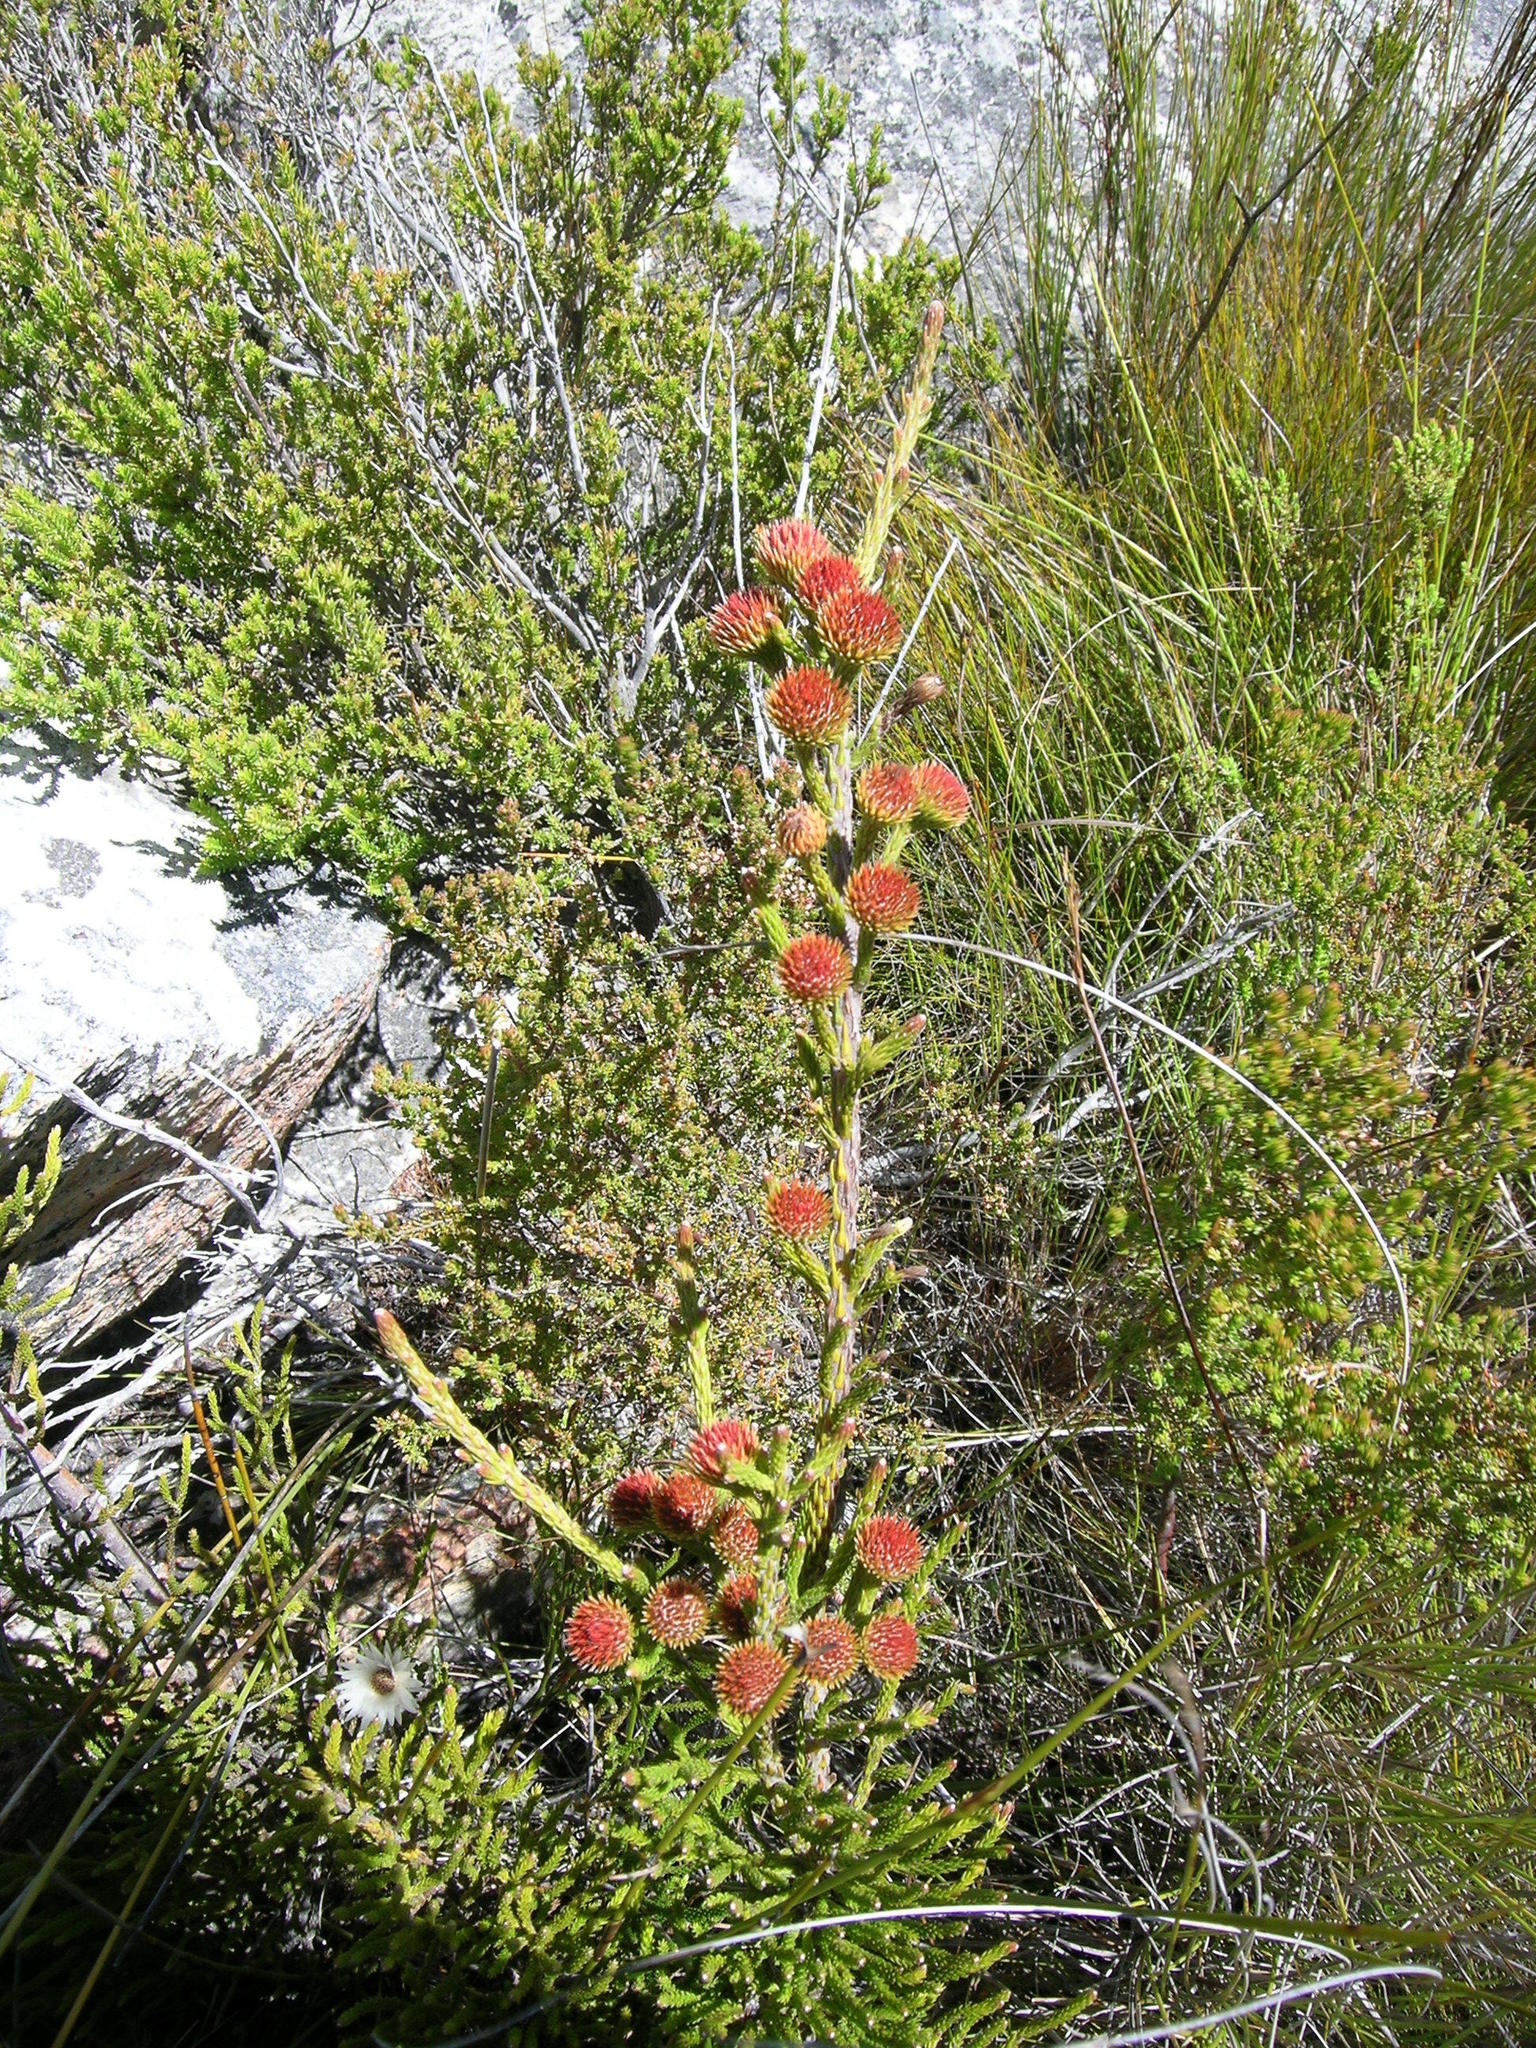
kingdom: Plantae
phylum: Tracheophyta
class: Magnoliopsida
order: Bruniales
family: Bruniaceae
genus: Brunia
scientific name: Brunia noduliflora
